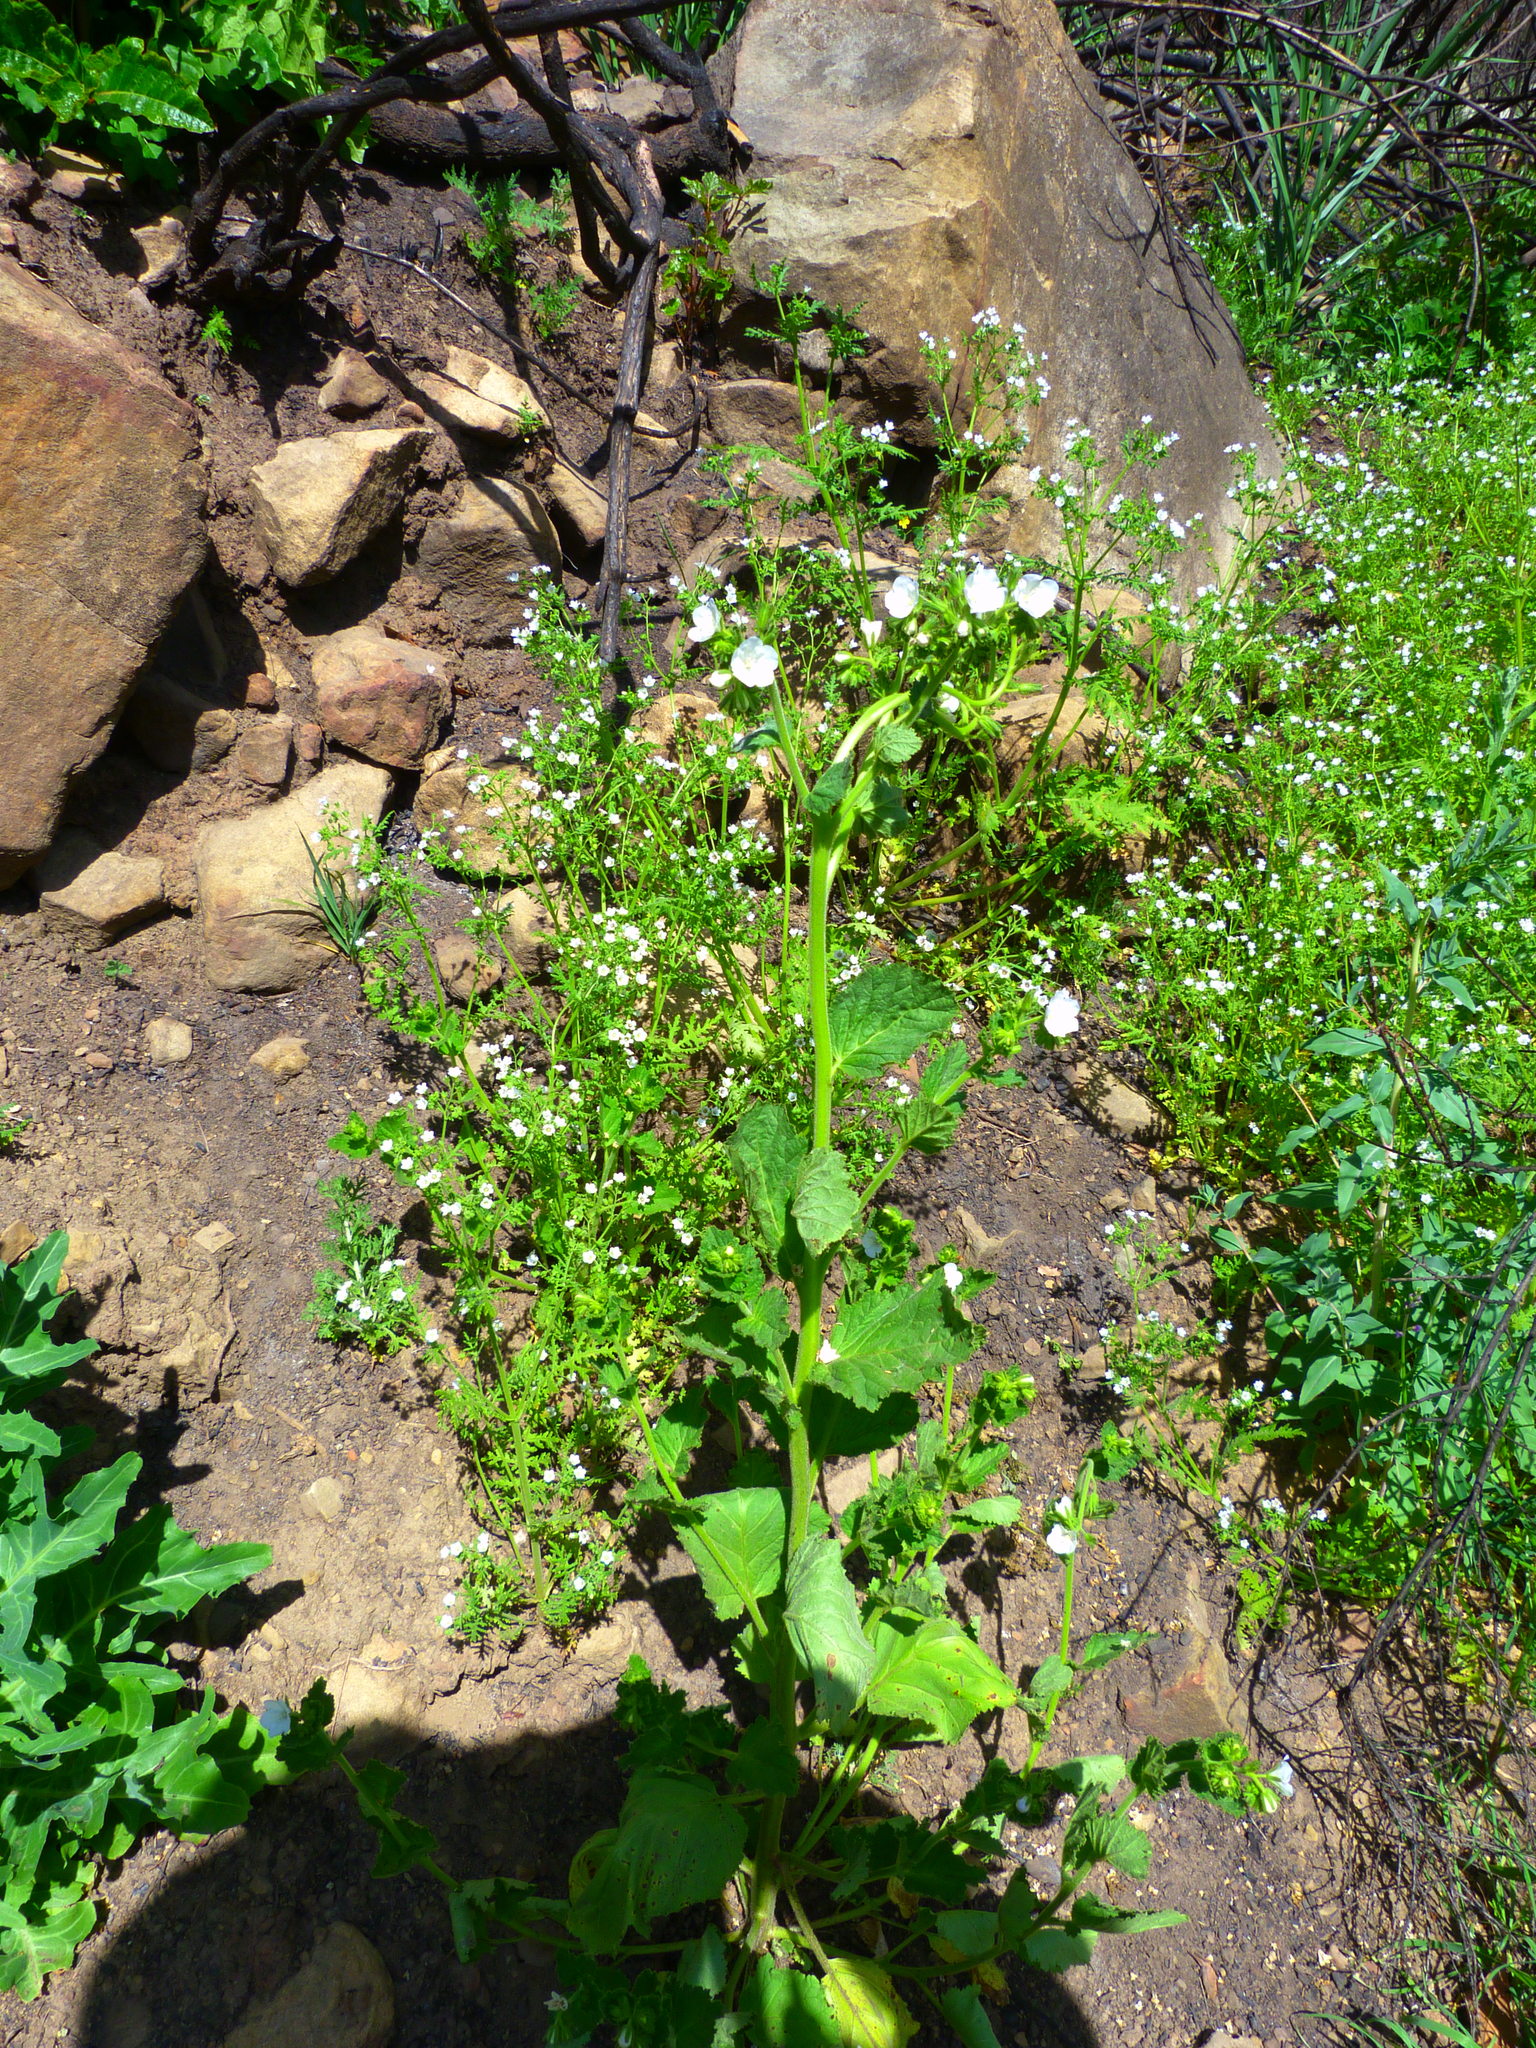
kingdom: Plantae
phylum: Tracheophyta
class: Magnoliopsida
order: Boraginales
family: Hydrophyllaceae
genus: Phacelia
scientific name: Phacelia viscida
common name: Sticky phacelia
